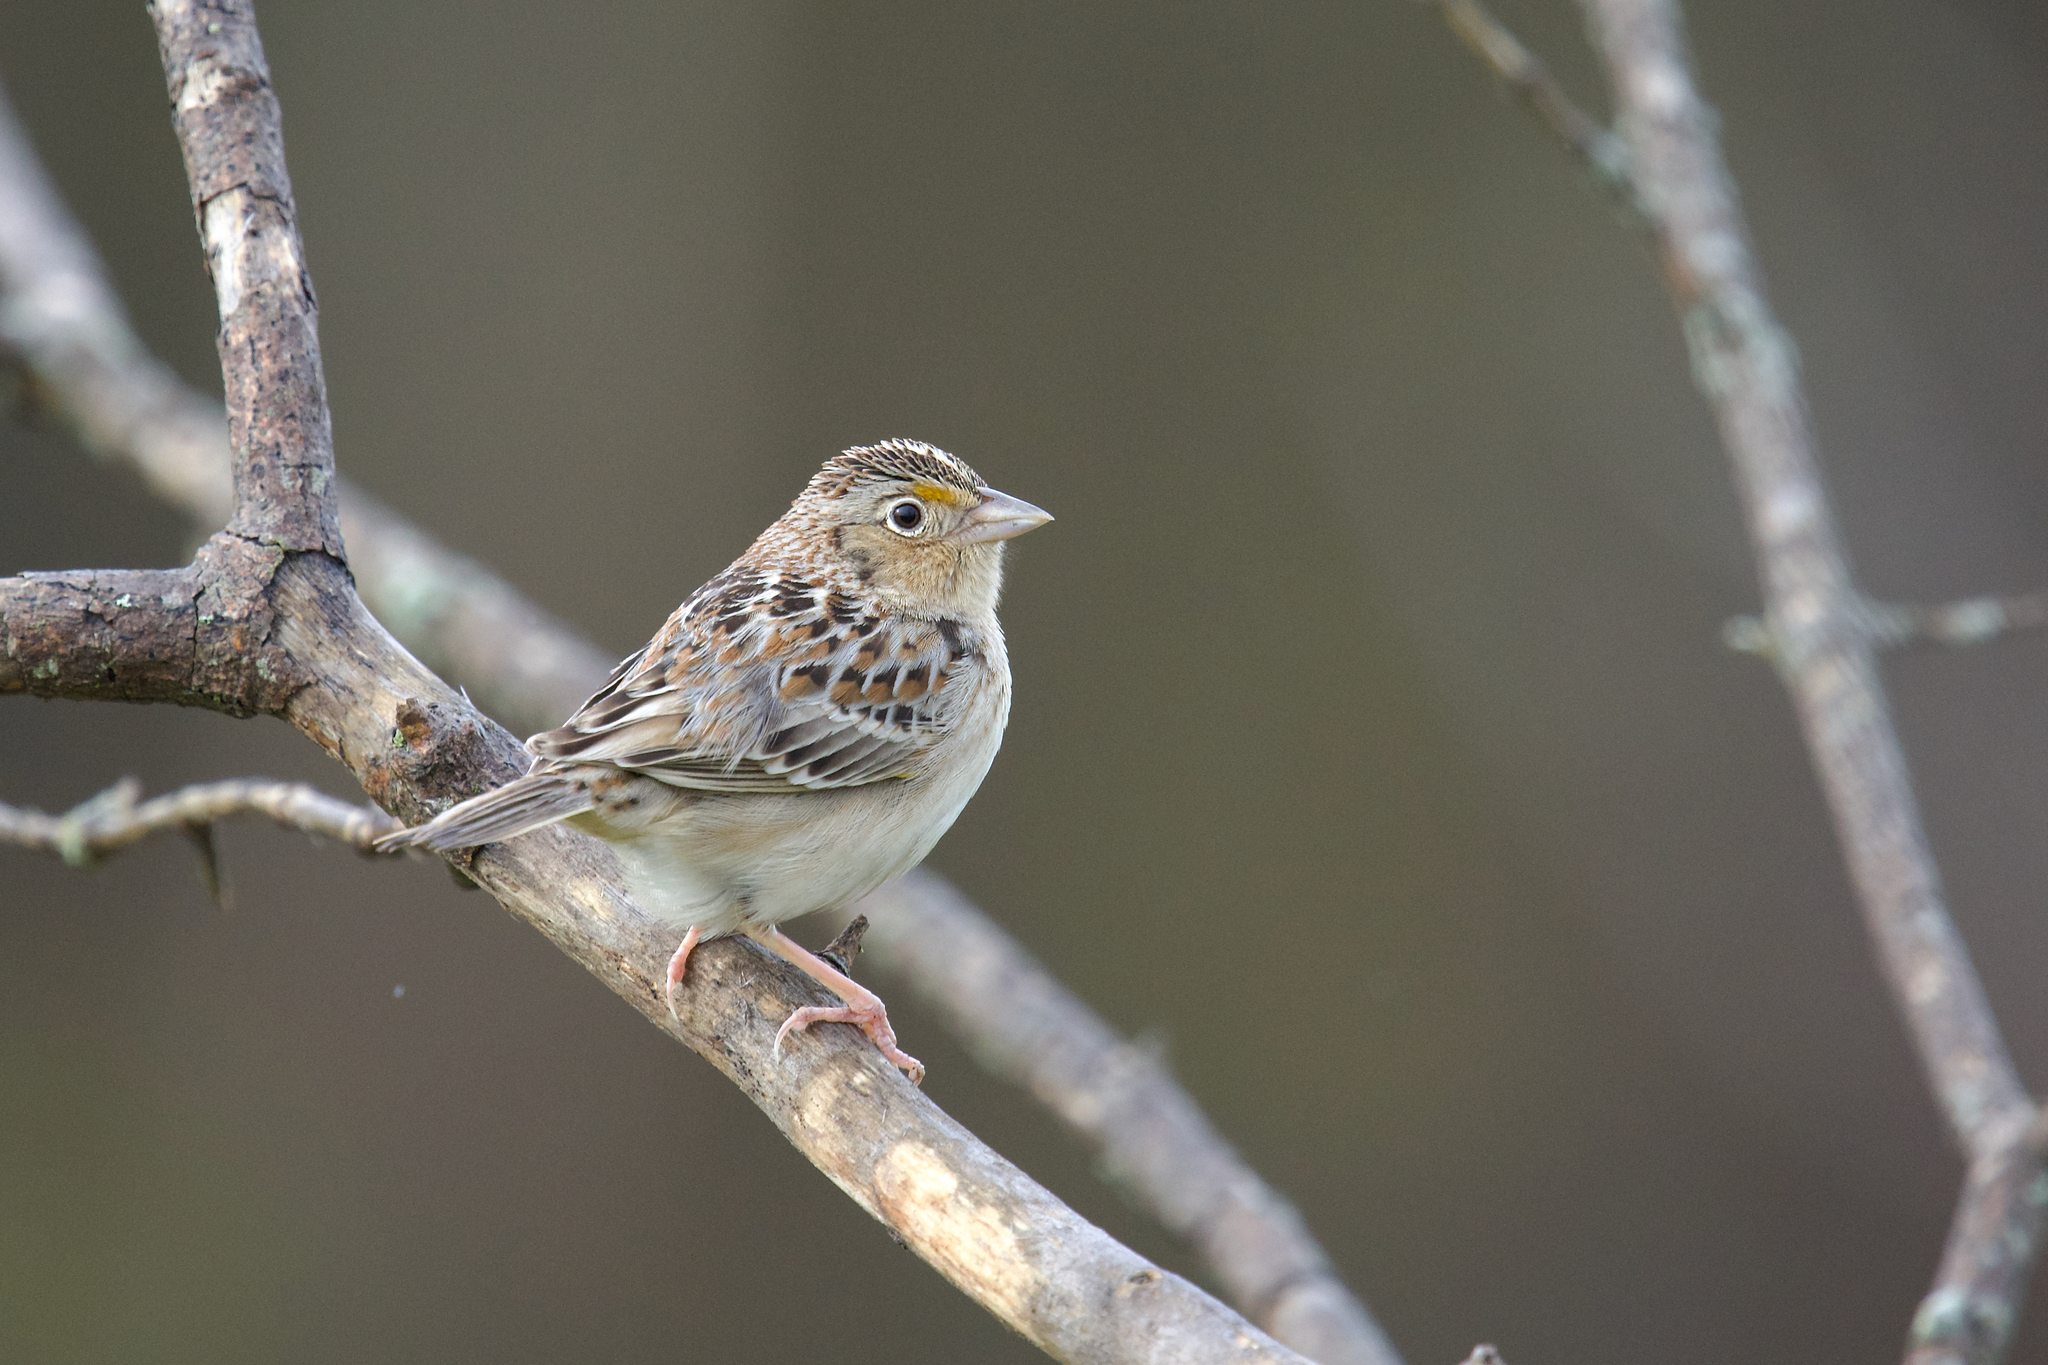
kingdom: Animalia
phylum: Chordata
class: Aves
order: Passeriformes
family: Passerellidae
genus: Ammodramus
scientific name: Ammodramus savannarum
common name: Grasshopper sparrow
